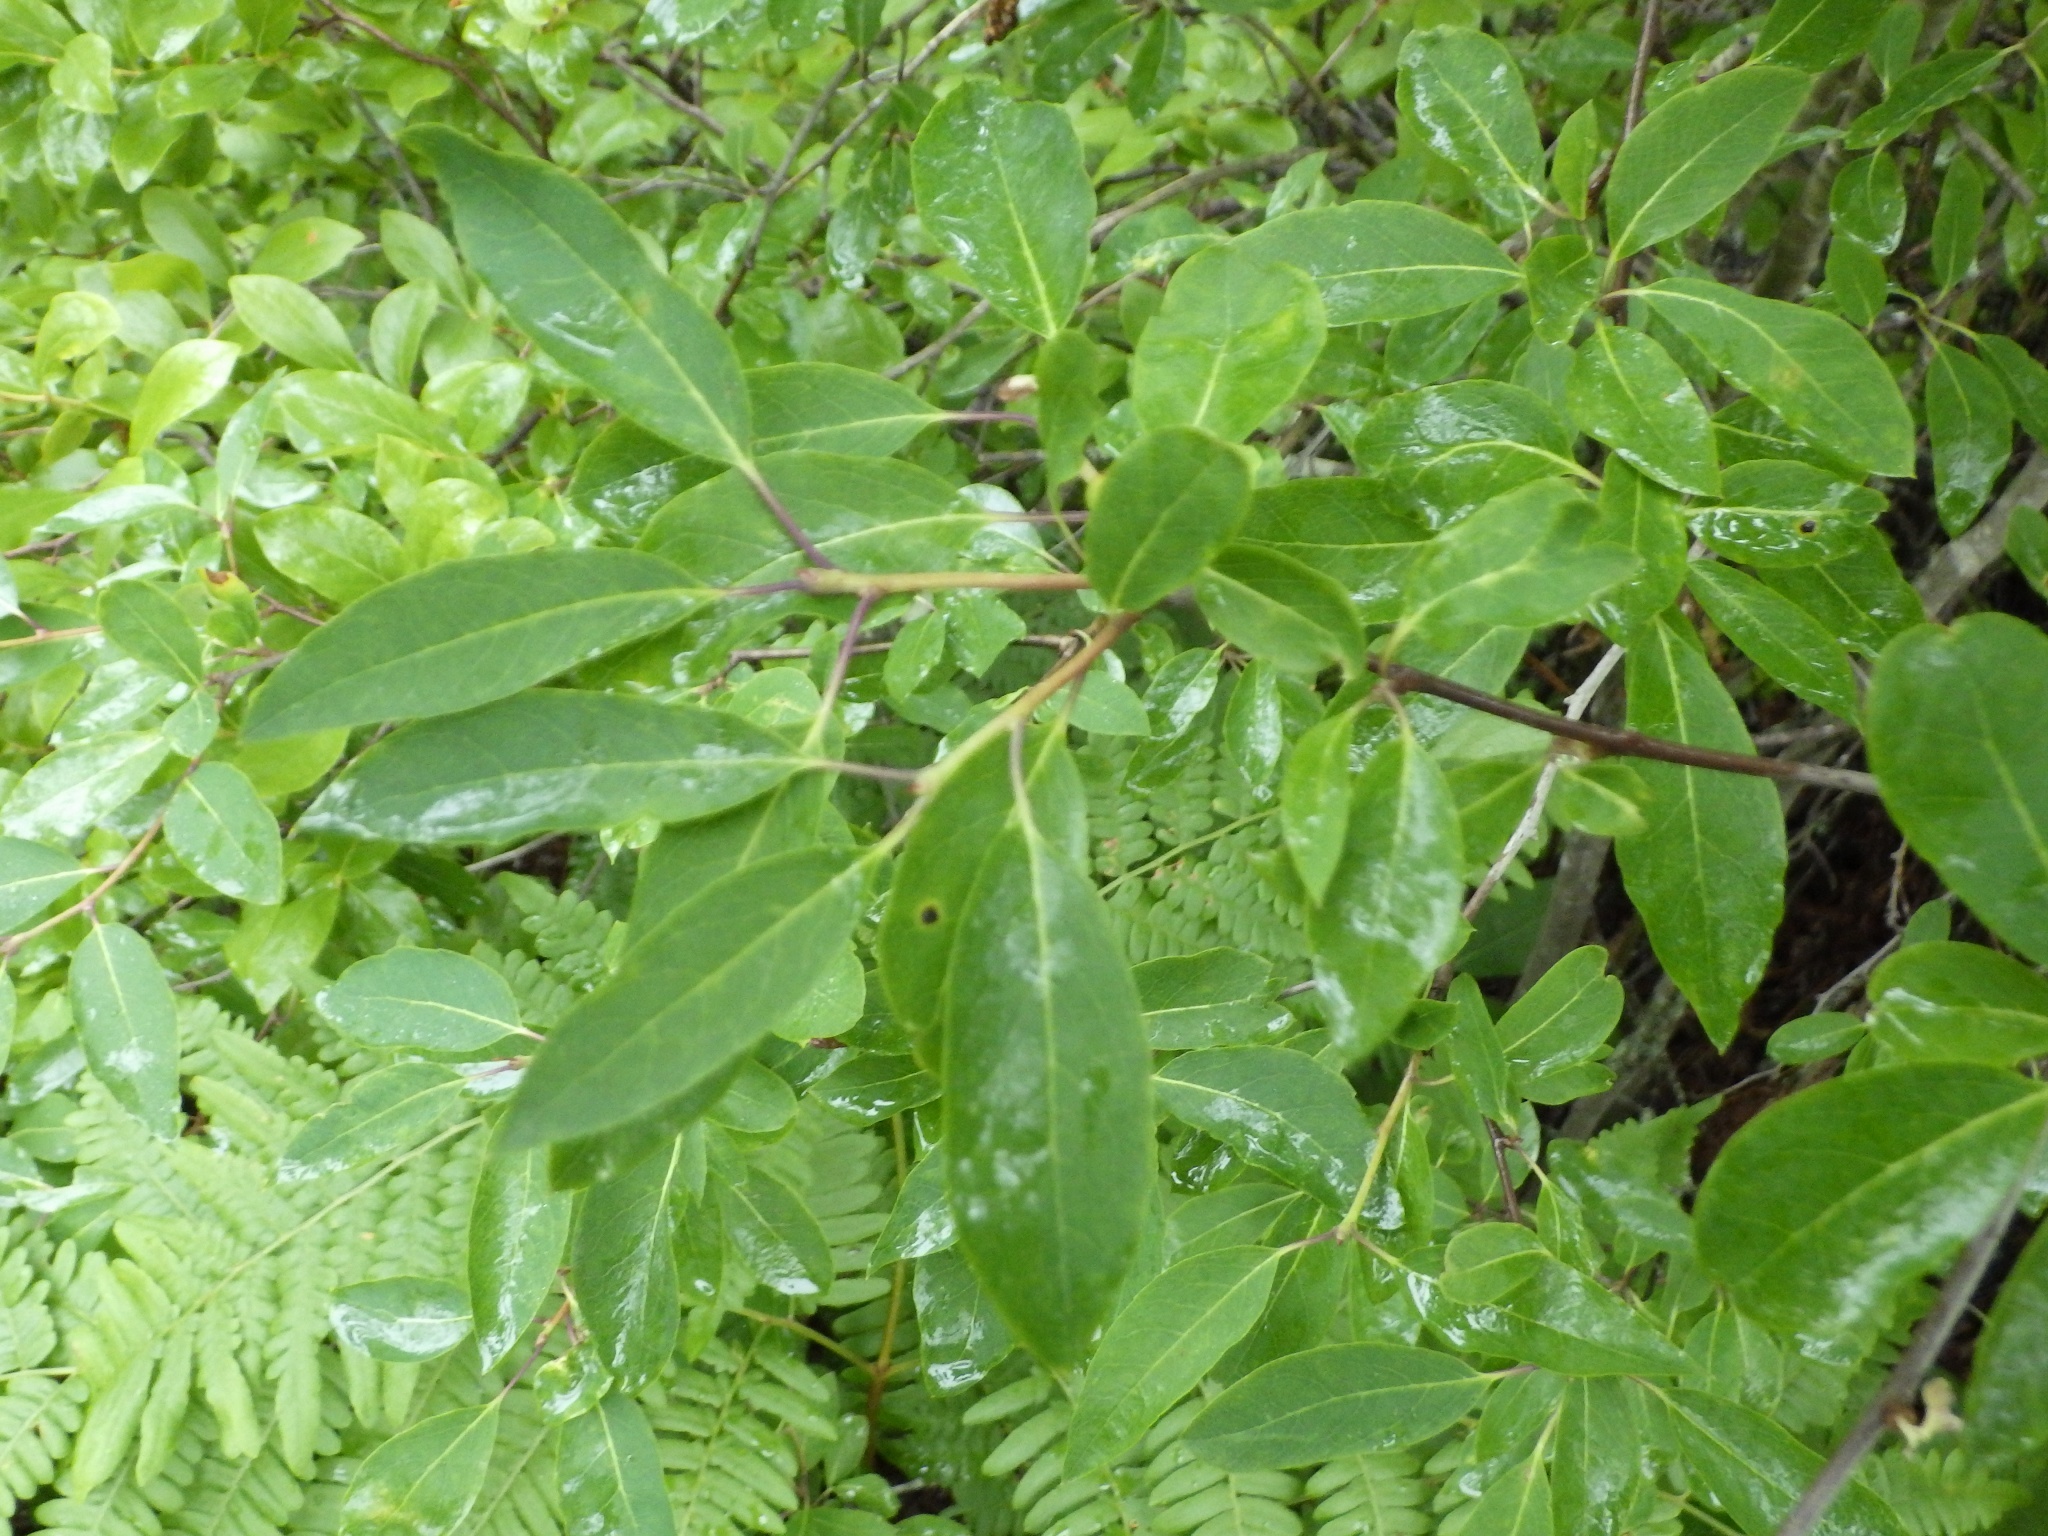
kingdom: Plantae
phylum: Tracheophyta
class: Magnoliopsida
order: Aquifoliales
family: Aquifoliaceae
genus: Ilex
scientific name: Ilex mucronata
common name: Catberry
